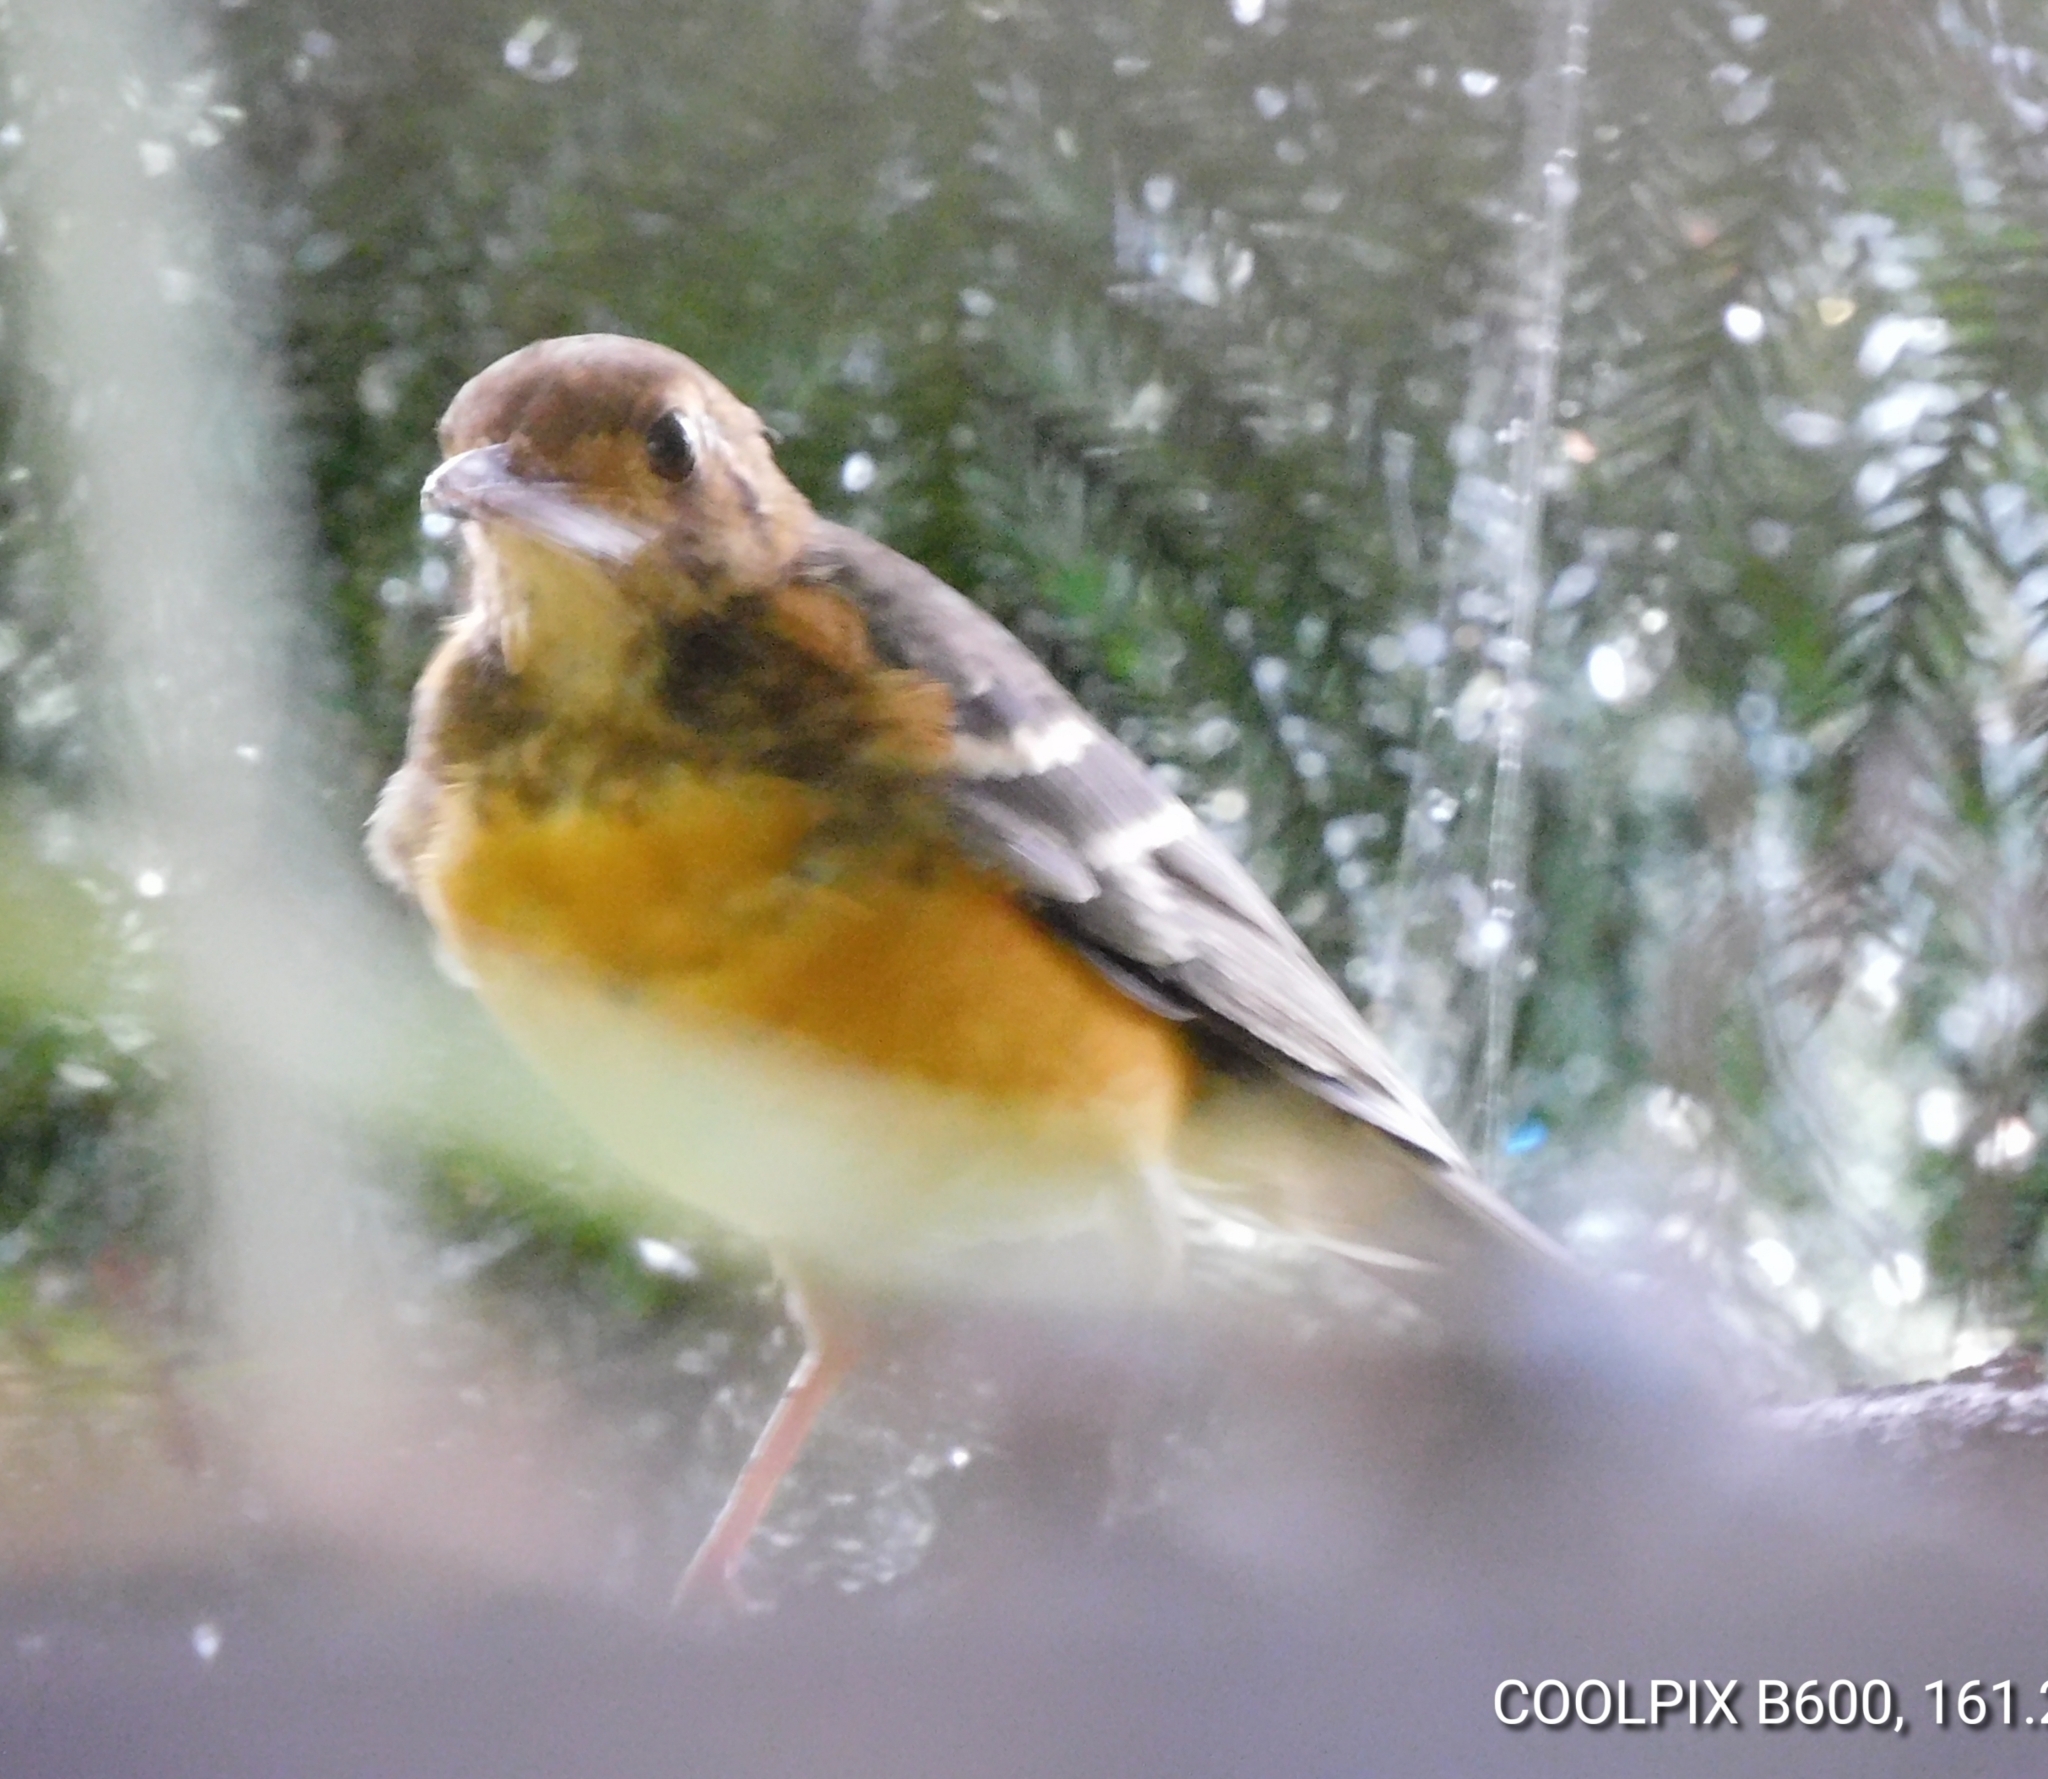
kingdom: Animalia
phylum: Chordata
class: Aves
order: Passeriformes
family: Turdidae
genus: Geokichla
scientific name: Geokichla citrina
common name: Orange-headed thrush
